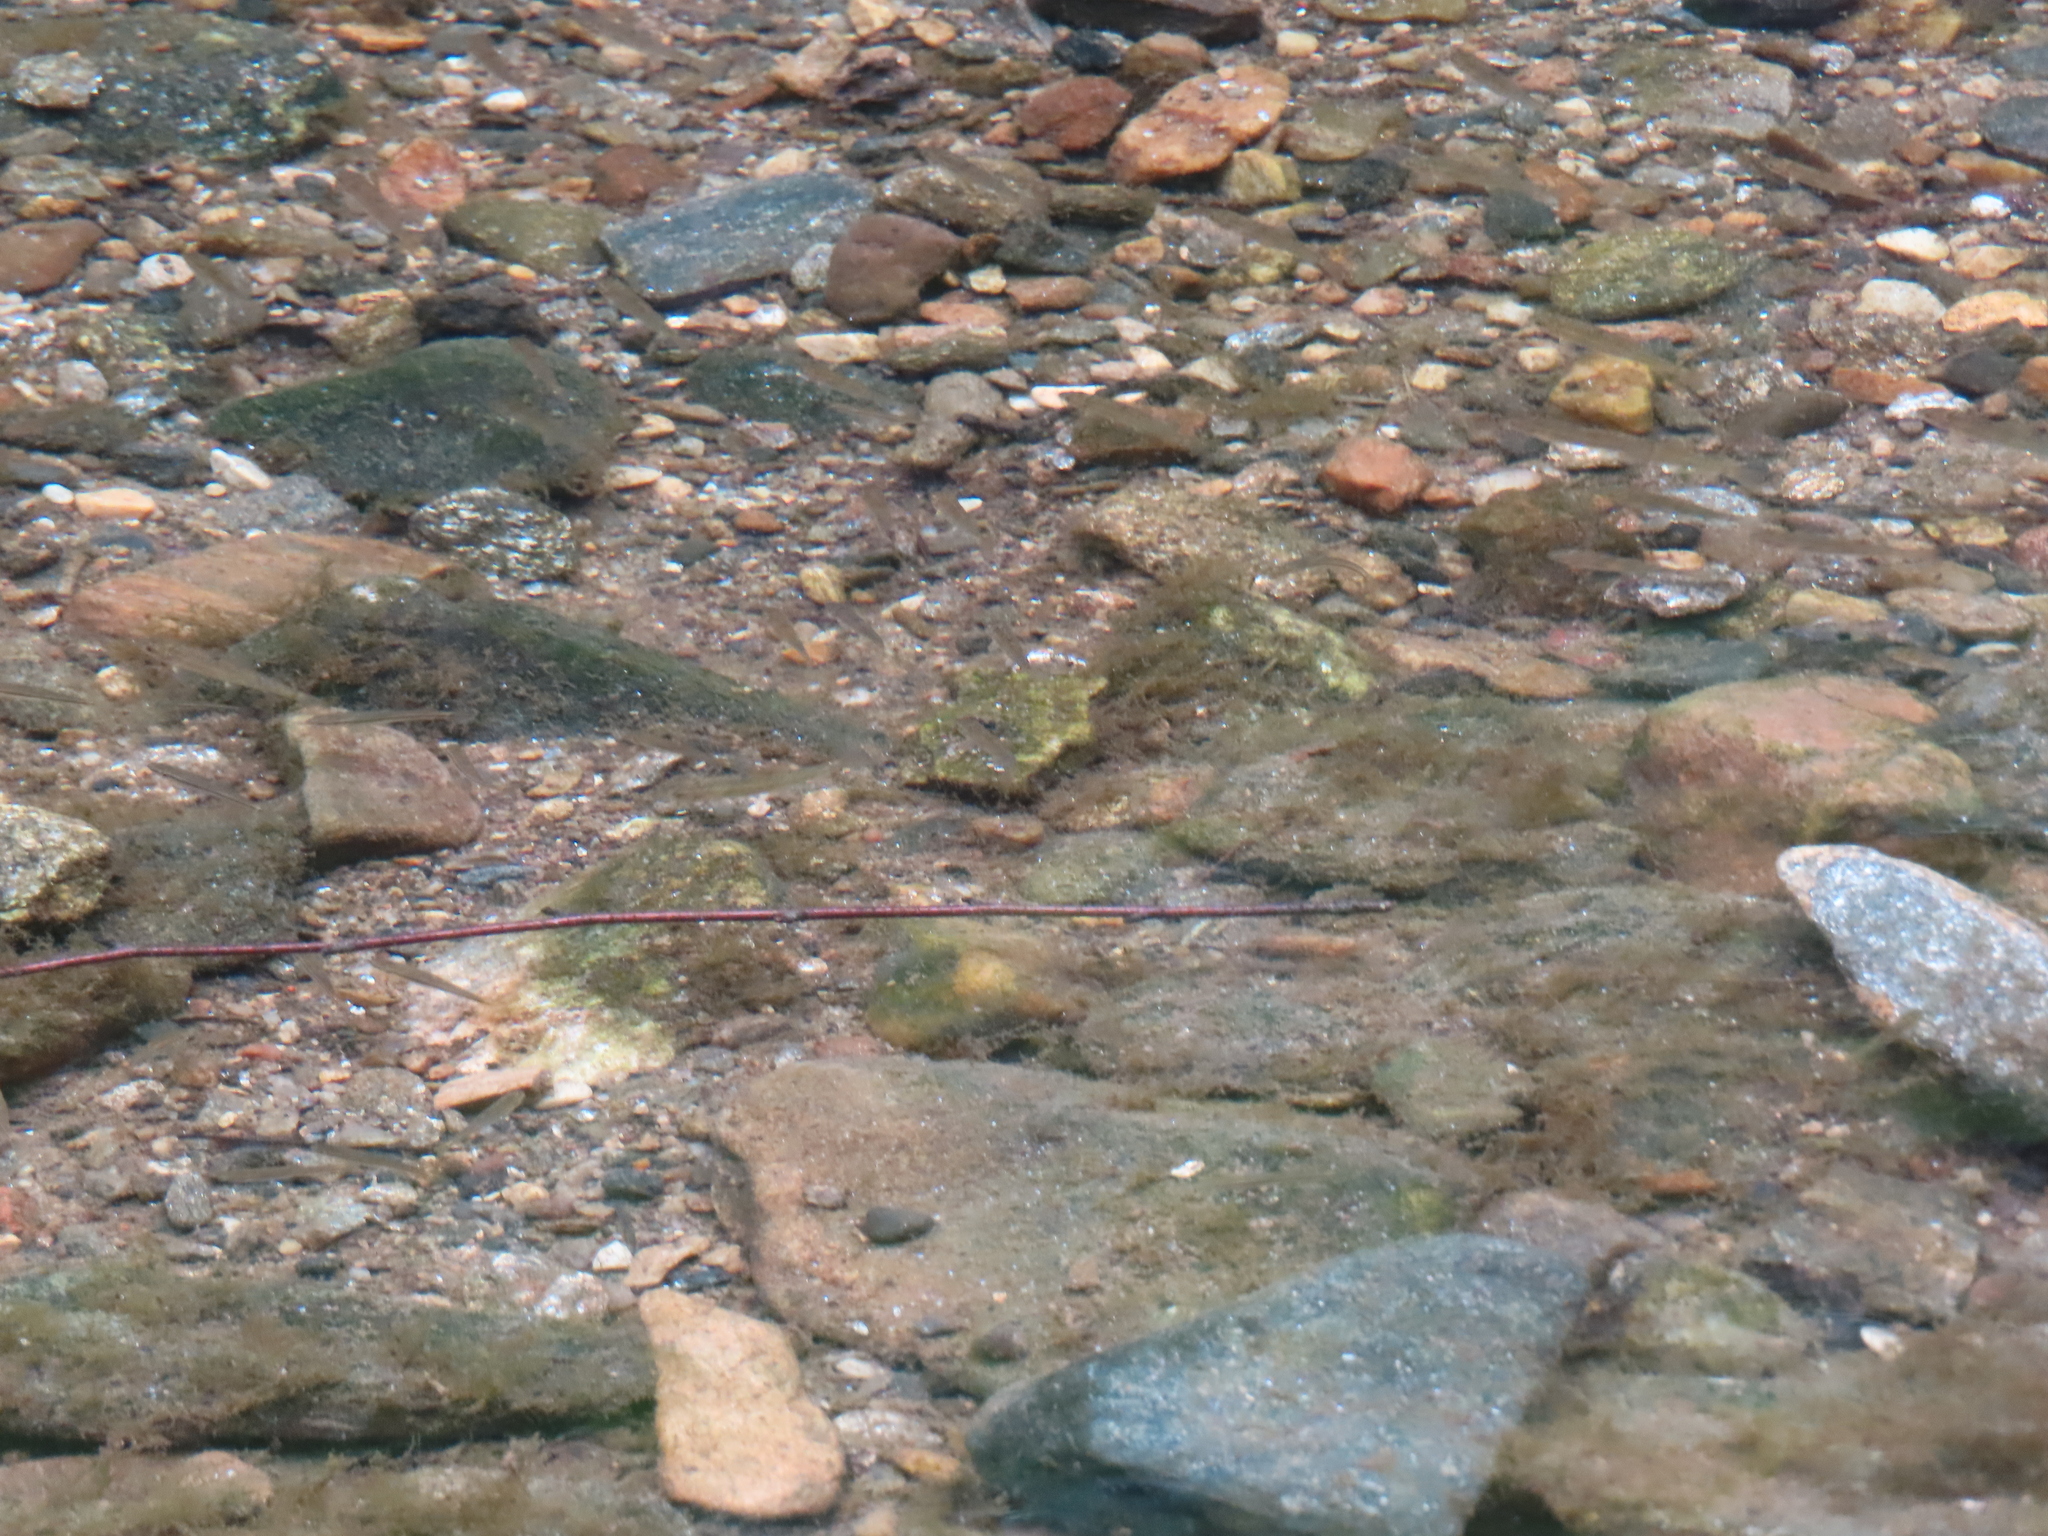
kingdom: Animalia
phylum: Chordata
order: Cypriniformes
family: Catostomidae
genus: Catostomus
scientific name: Catostomus commersonii
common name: White sucker
